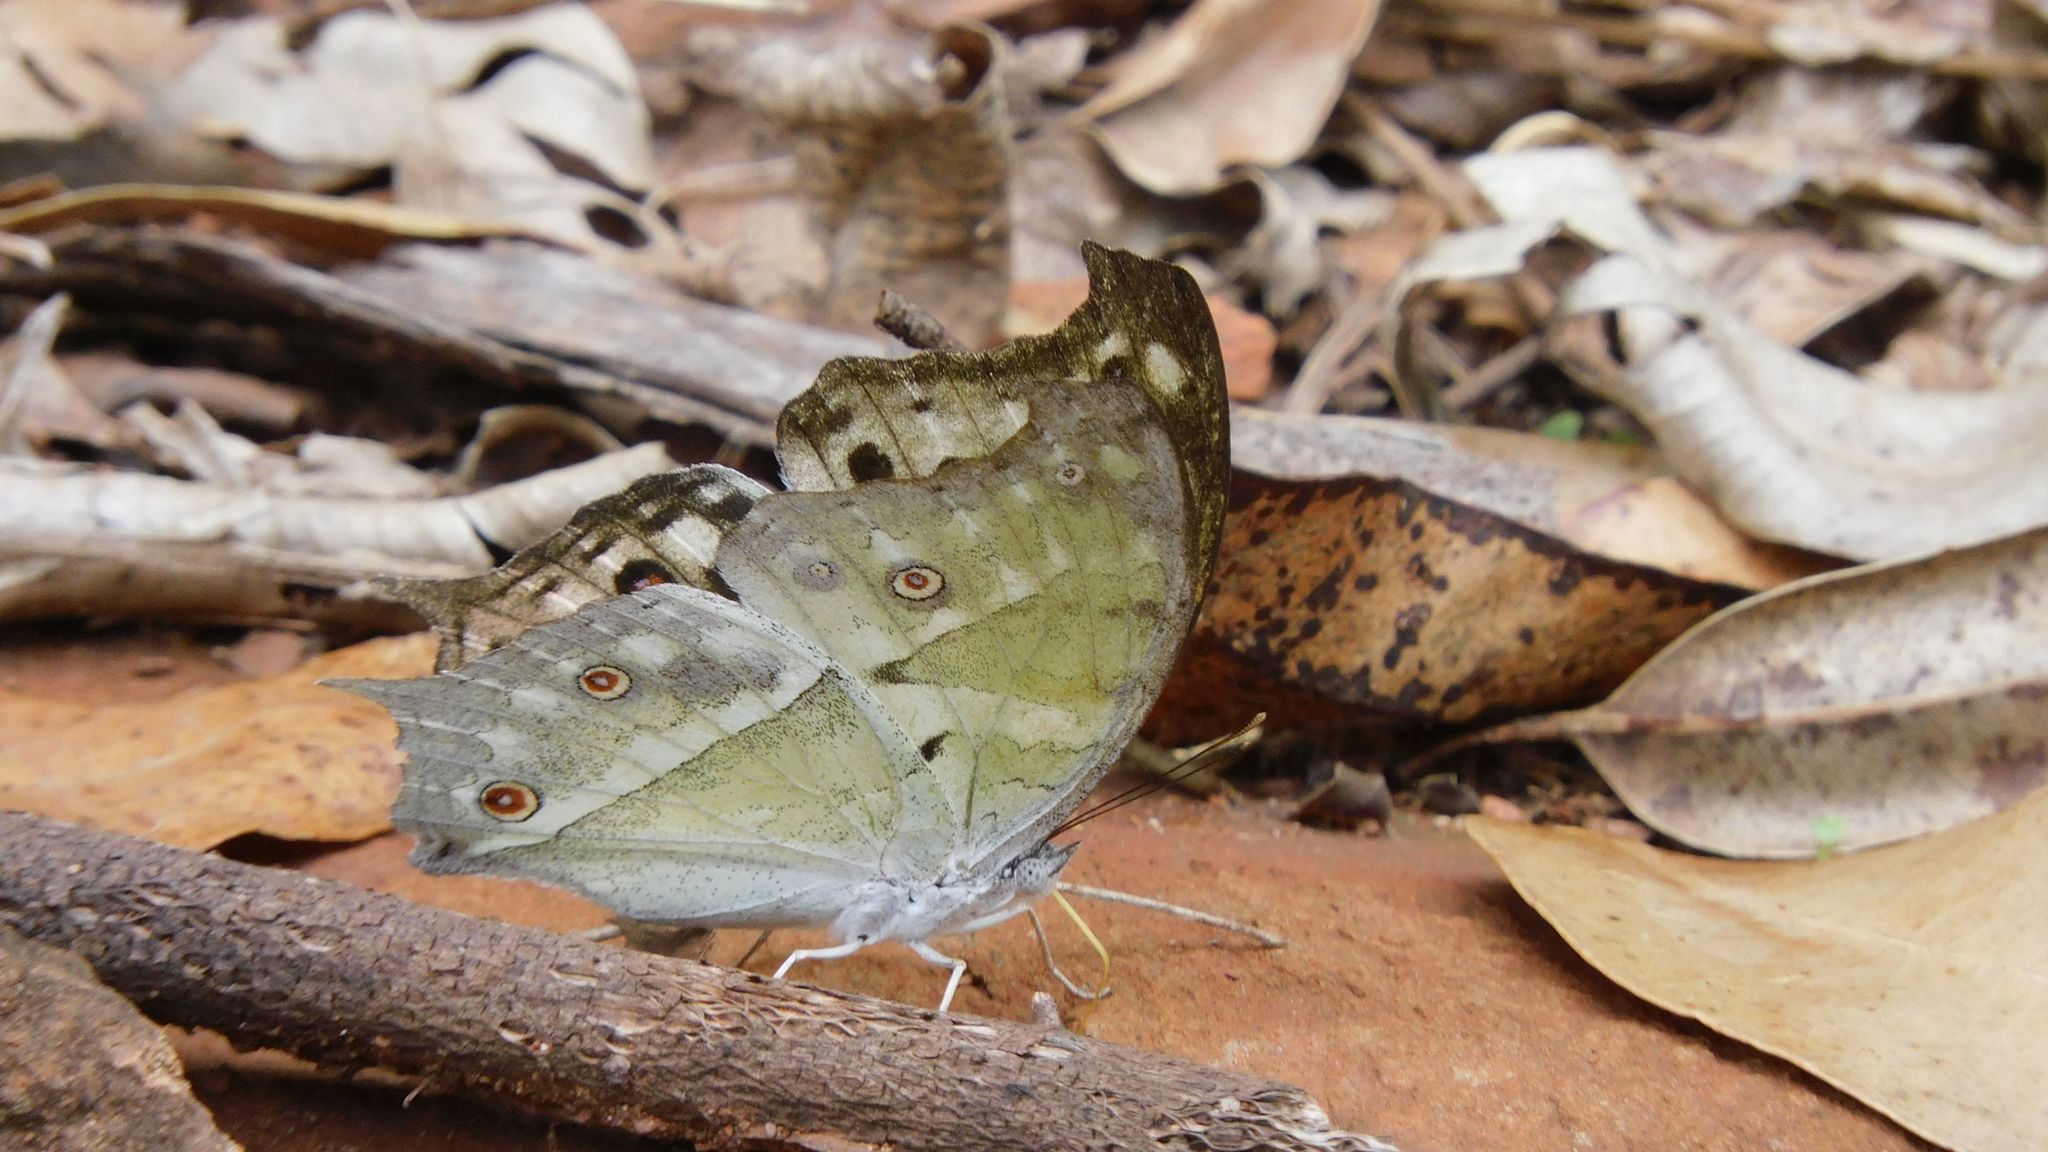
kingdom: Animalia
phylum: Arthropoda
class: Insecta
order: Lepidoptera
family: Nymphalidae
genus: Salamis
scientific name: Salamis Protogoniomorpha parhassus
